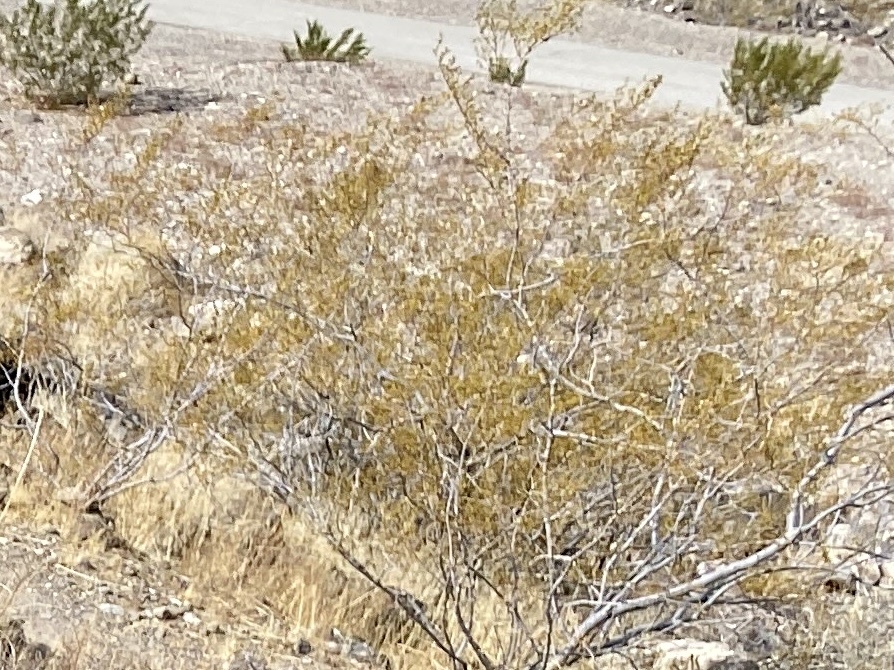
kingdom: Plantae
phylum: Tracheophyta
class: Magnoliopsida
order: Zygophyllales
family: Zygophyllaceae
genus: Larrea
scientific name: Larrea tridentata
